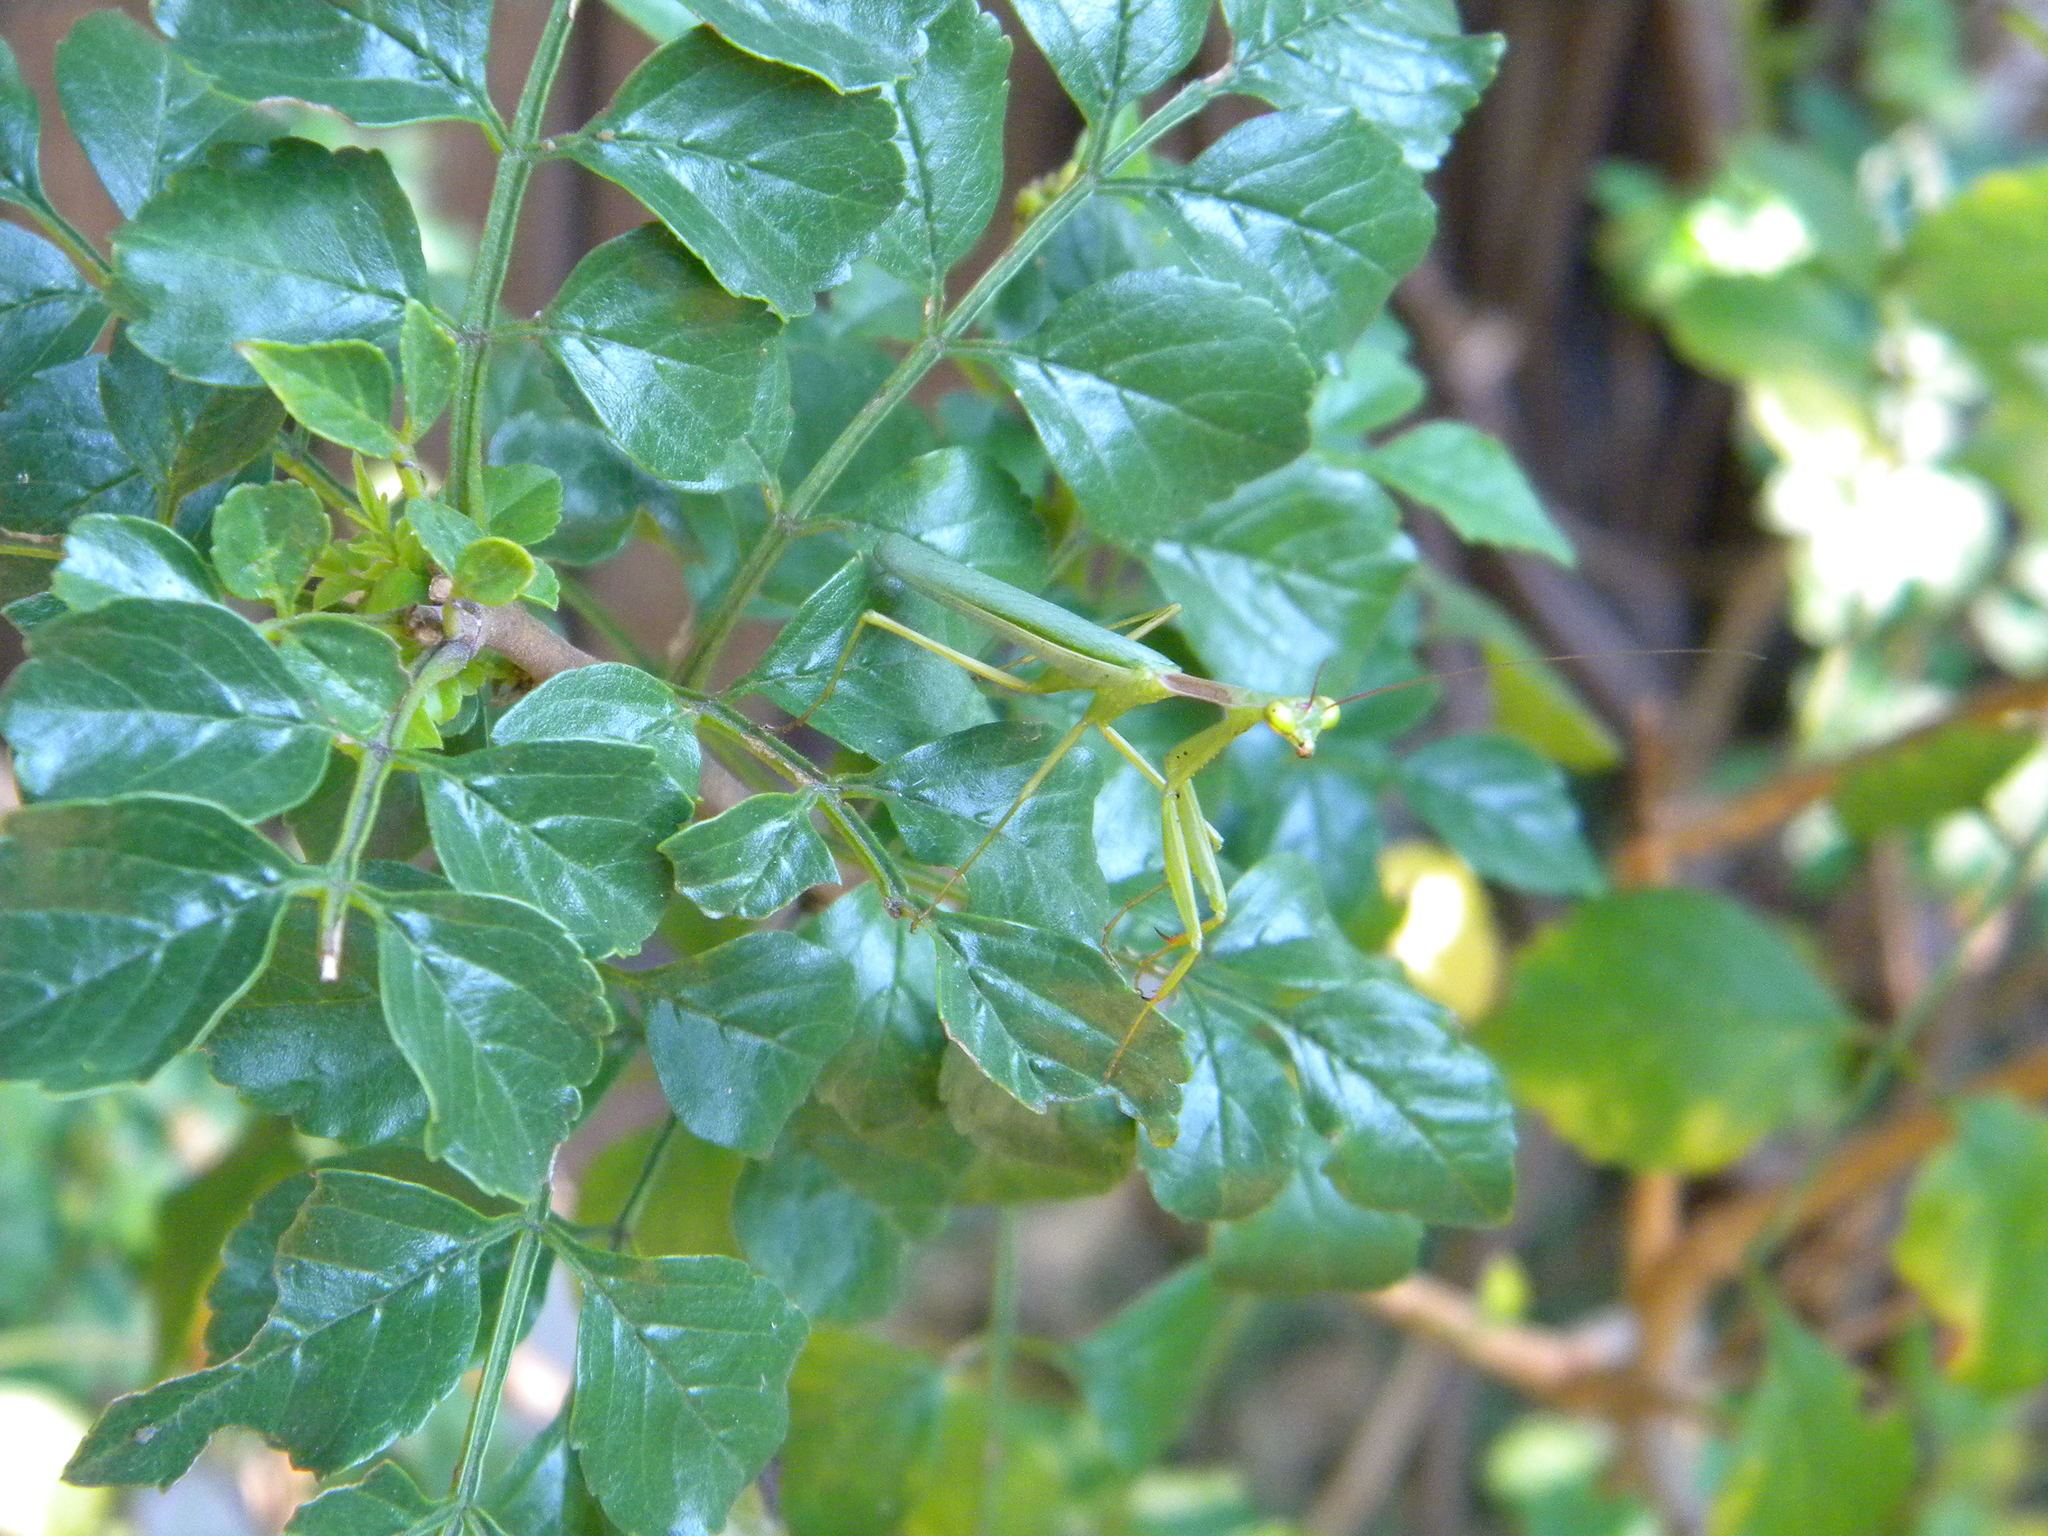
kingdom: Animalia
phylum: Arthropoda
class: Insecta
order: Mantodea
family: Miomantidae
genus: Miomantis
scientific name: Miomantis caffra
